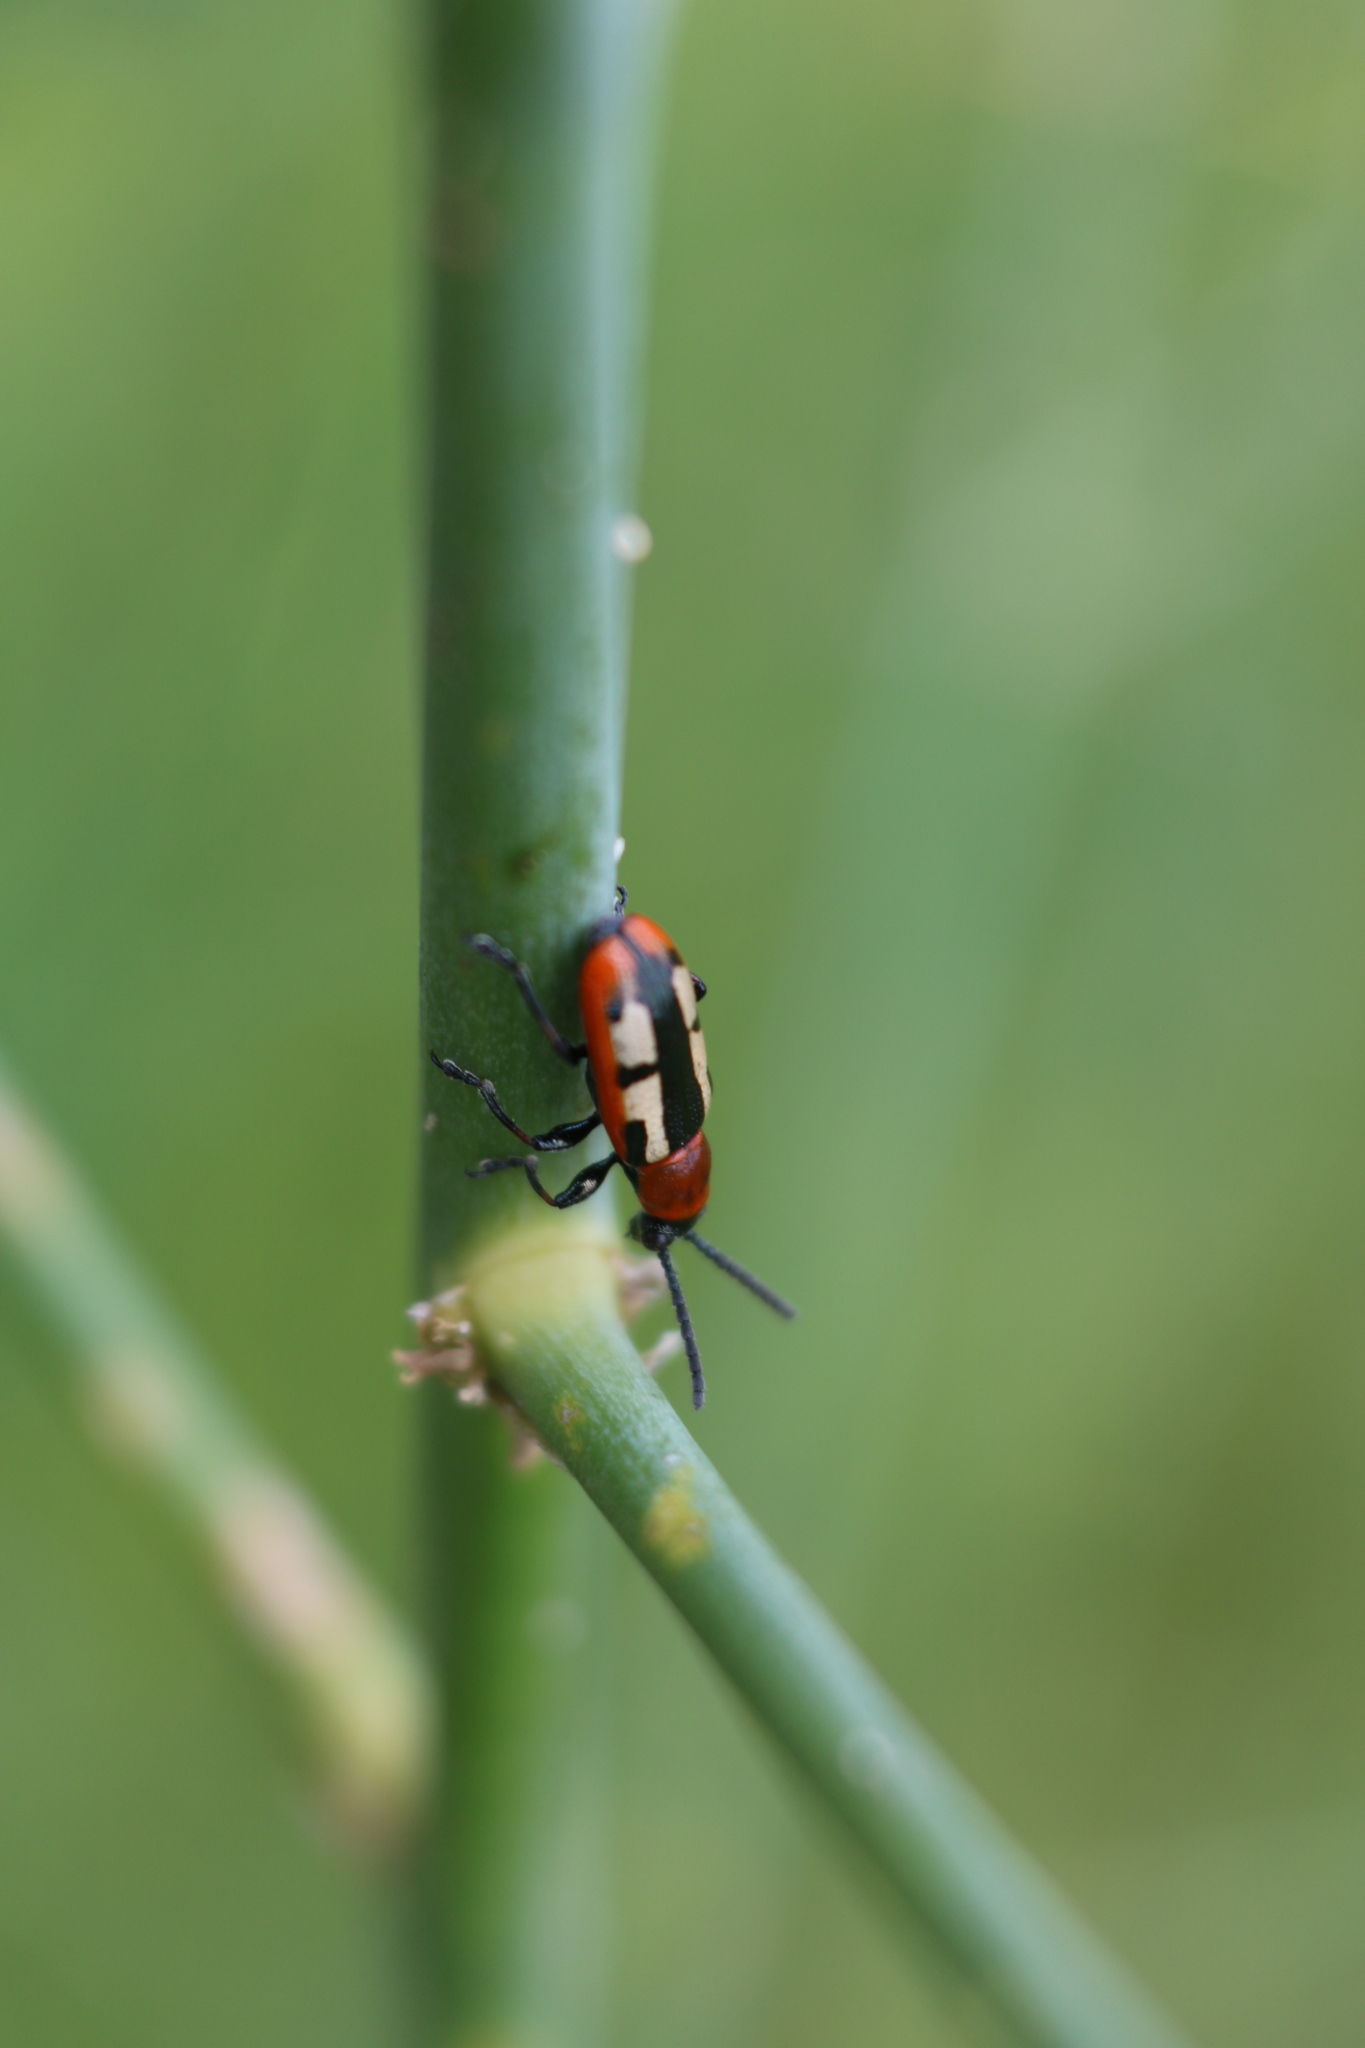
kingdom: Animalia
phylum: Arthropoda
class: Insecta
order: Coleoptera
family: Chrysomelidae
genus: Crioceris
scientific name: Crioceris asparagi
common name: Asparagus beetle
